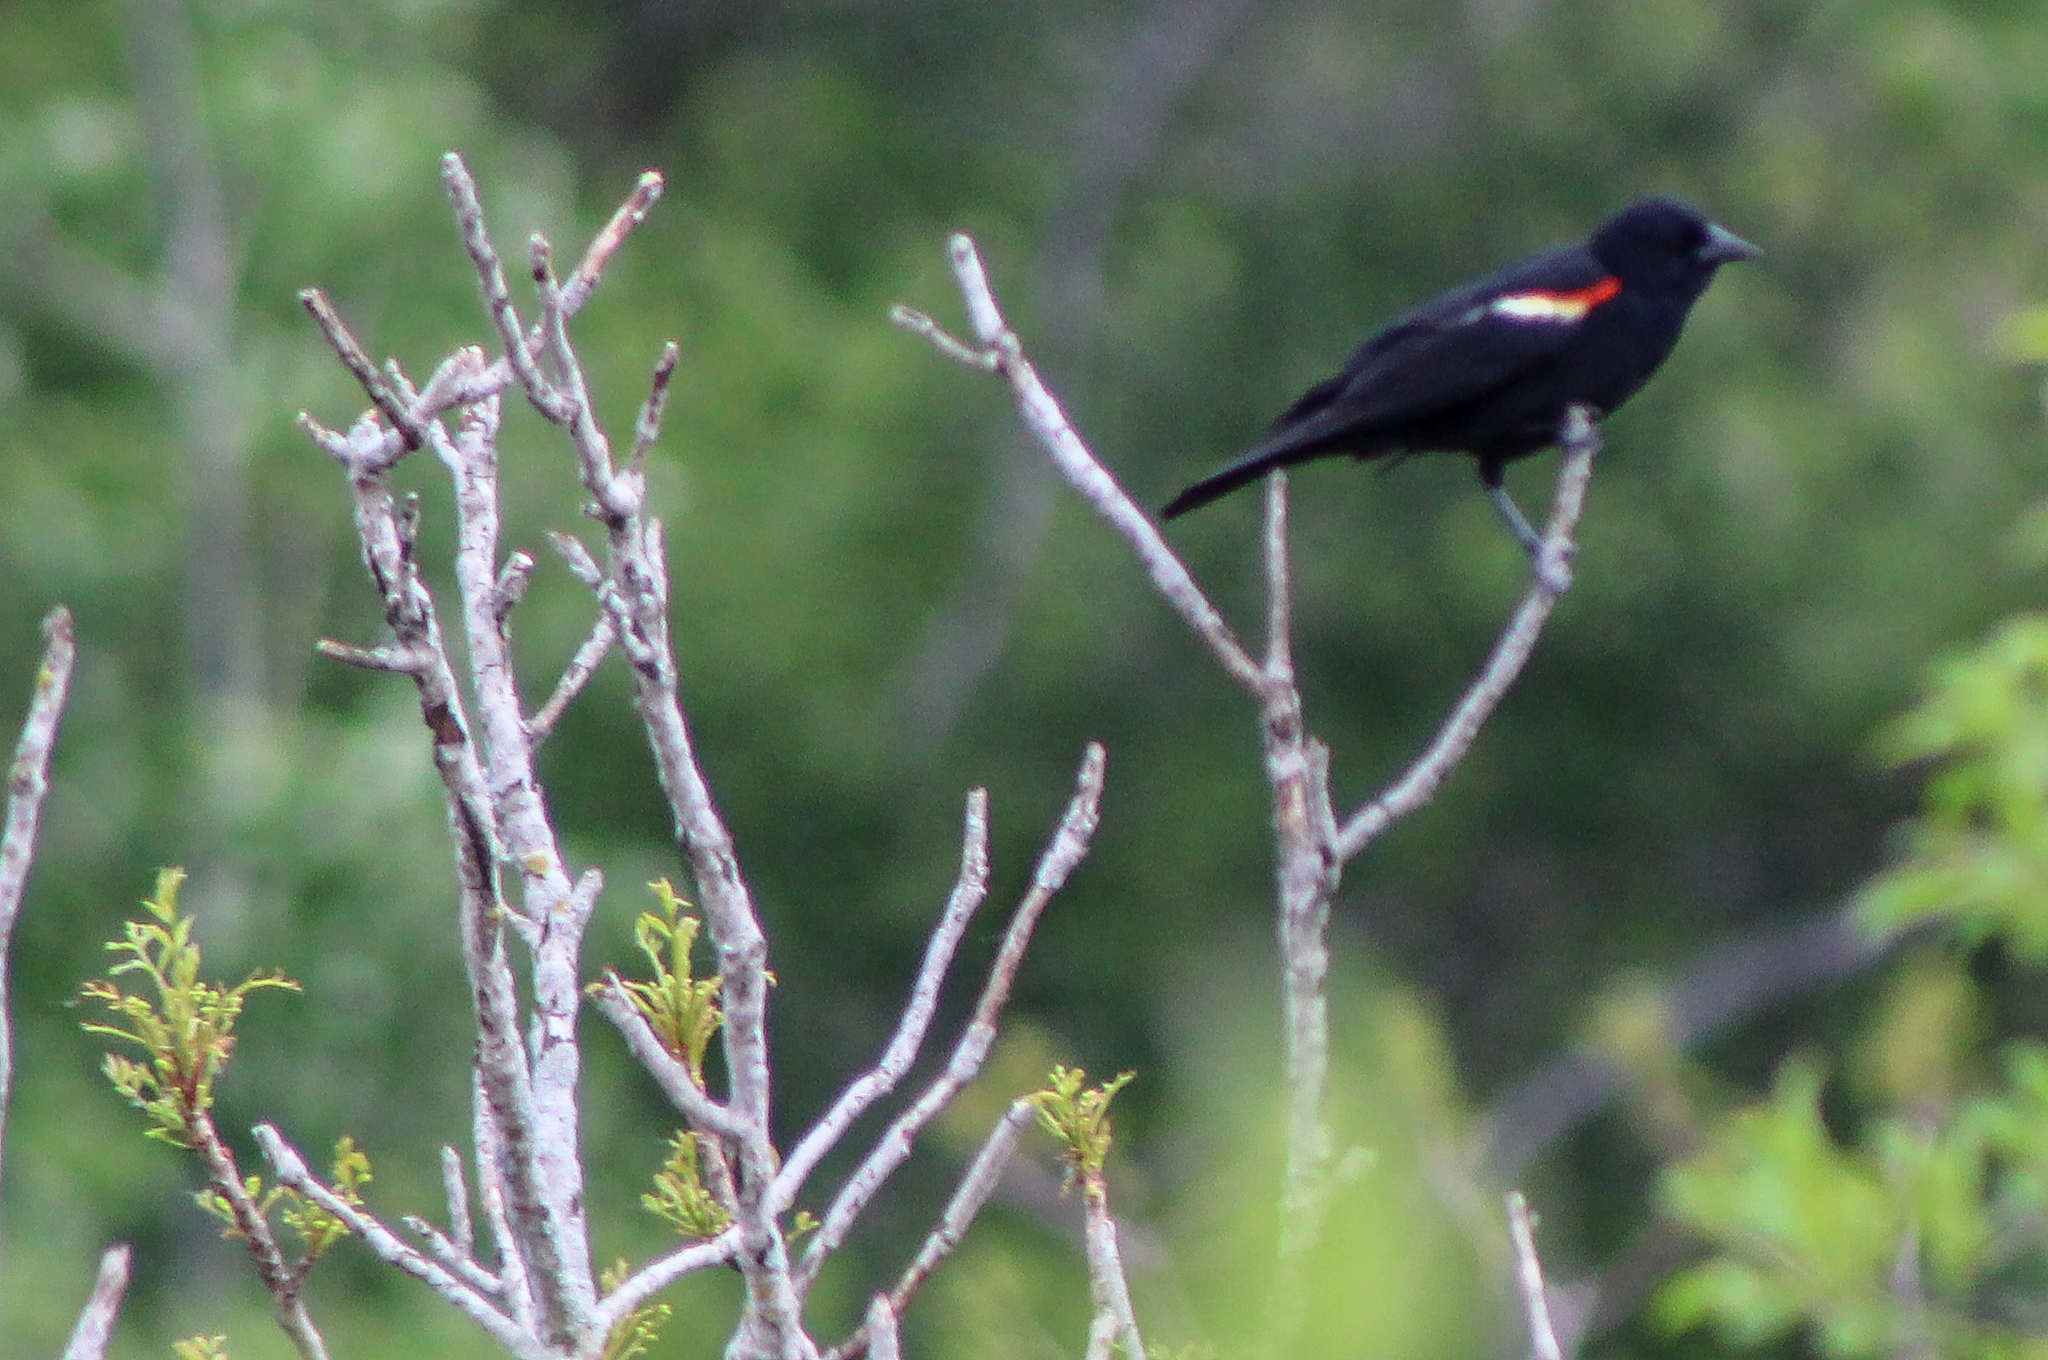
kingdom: Animalia
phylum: Chordata
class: Aves
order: Passeriformes
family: Icteridae
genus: Agelaius
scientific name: Agelaius phoeniceus
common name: Red-winged blackbird
